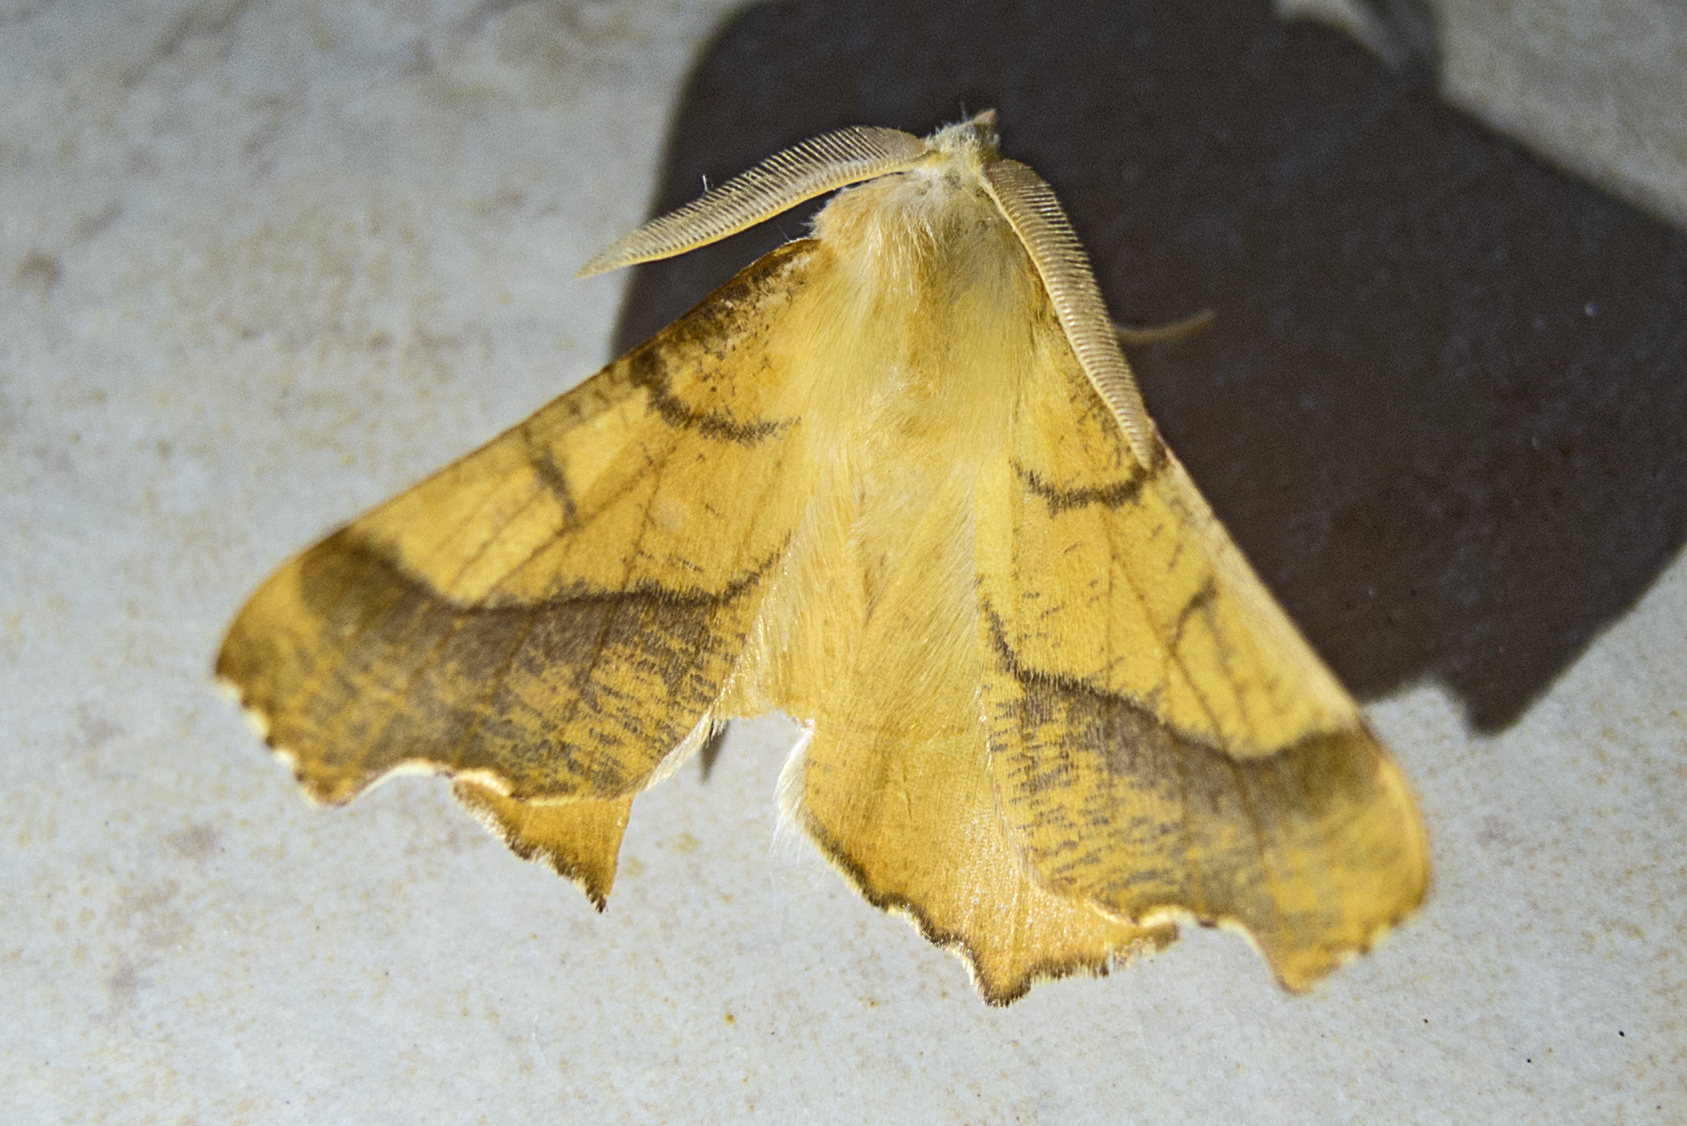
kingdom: Animalia
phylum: Arthropoda
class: Insecta
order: Lepidoptera
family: Geometridae
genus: Ennomos
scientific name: Ennomos fuscantaria
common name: Dusky thorn
